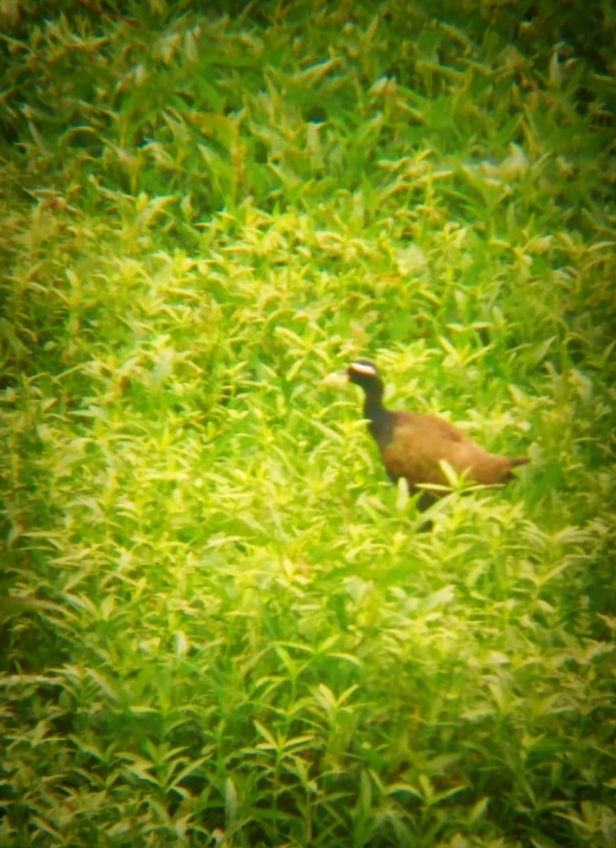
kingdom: Animalia
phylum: Chordata
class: Aves
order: Charadriiformes
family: Jacanidae
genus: Metopidius
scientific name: Metopidius indicus
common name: Bronze-winged jacana
